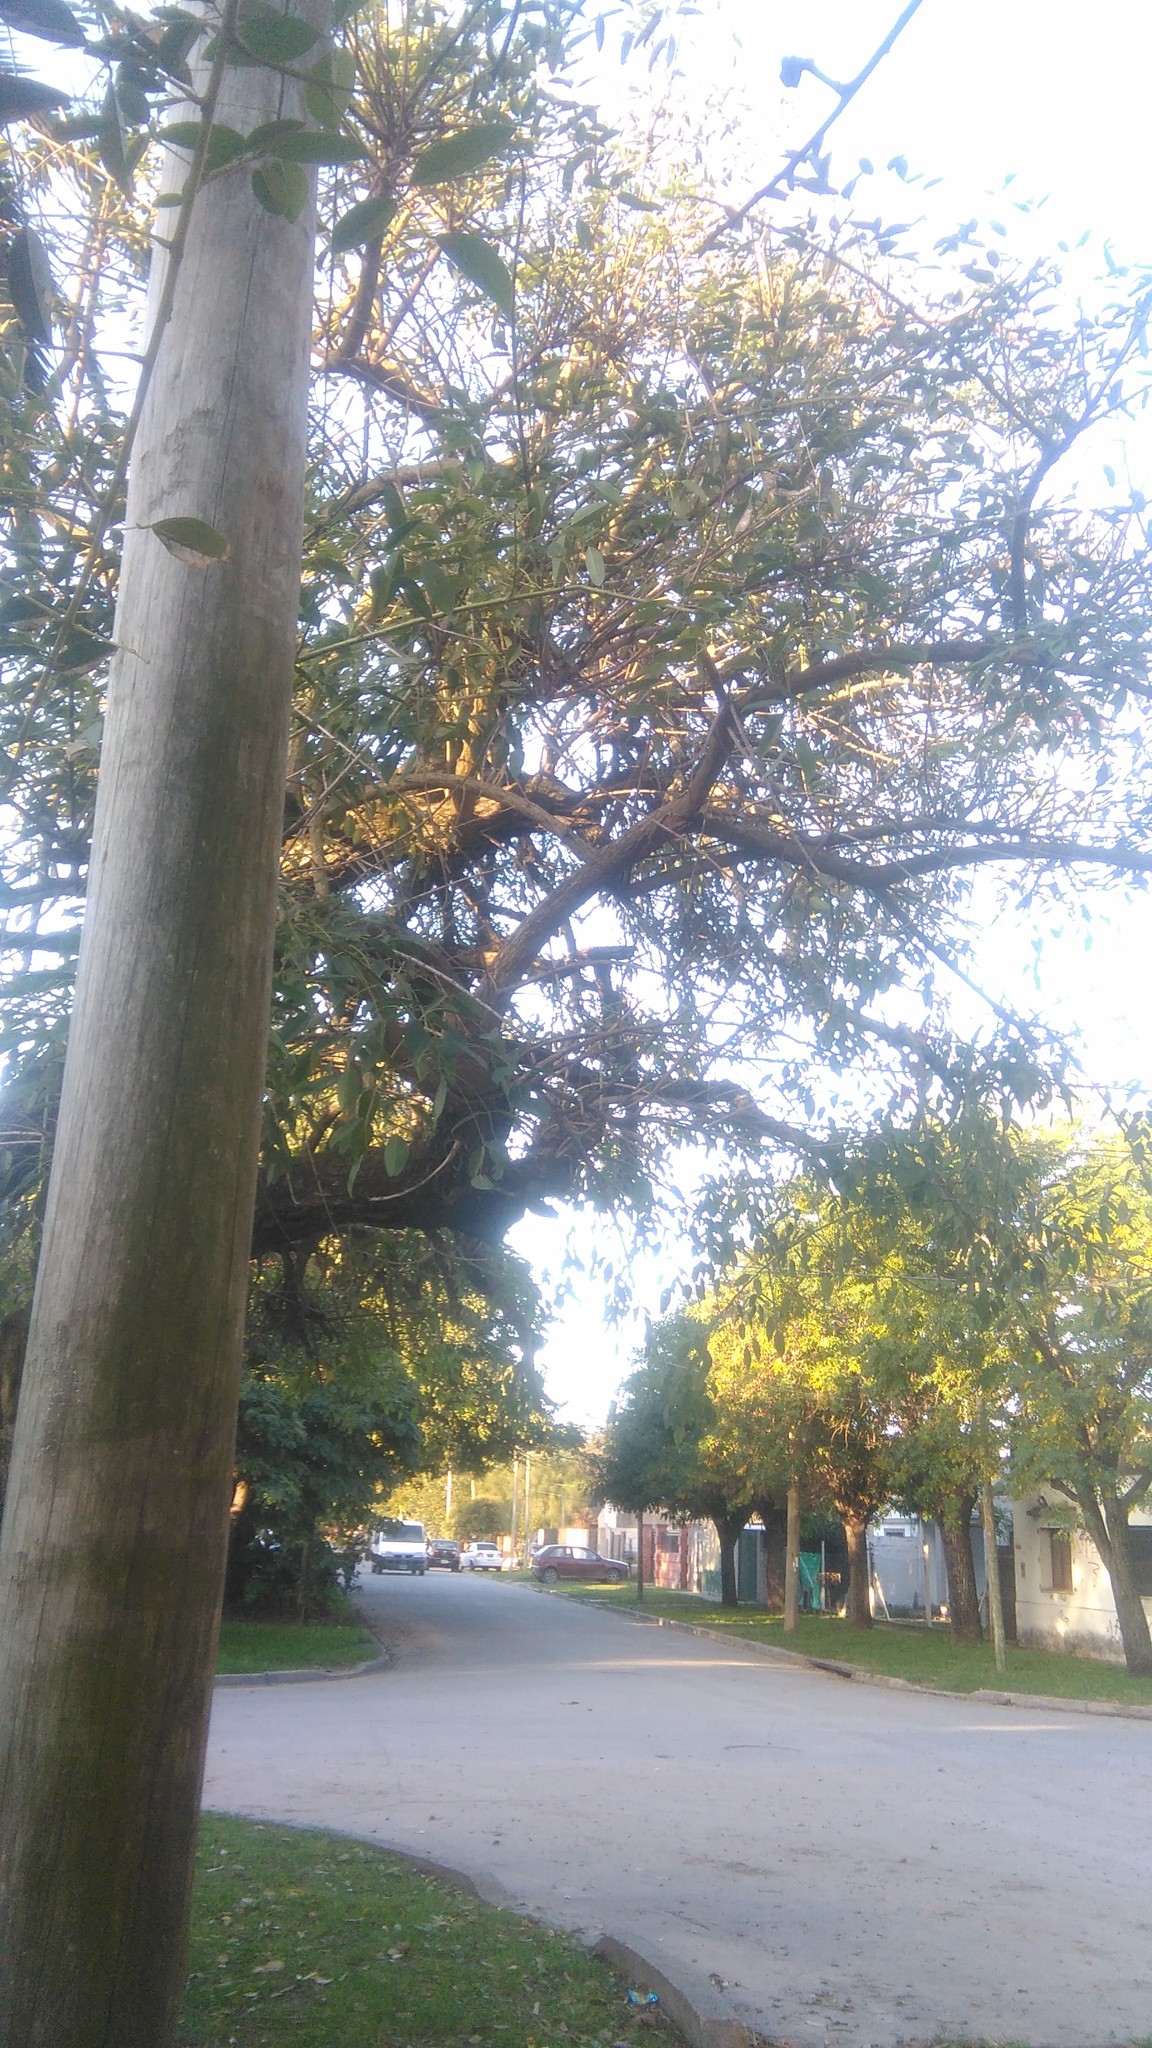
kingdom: Plantae
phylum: Tracheophyta
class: Magnoliopsida
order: Fabales
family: Fabaceae
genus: Erythrina
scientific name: Erythrina crista-galli
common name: Cockspur coral tree
